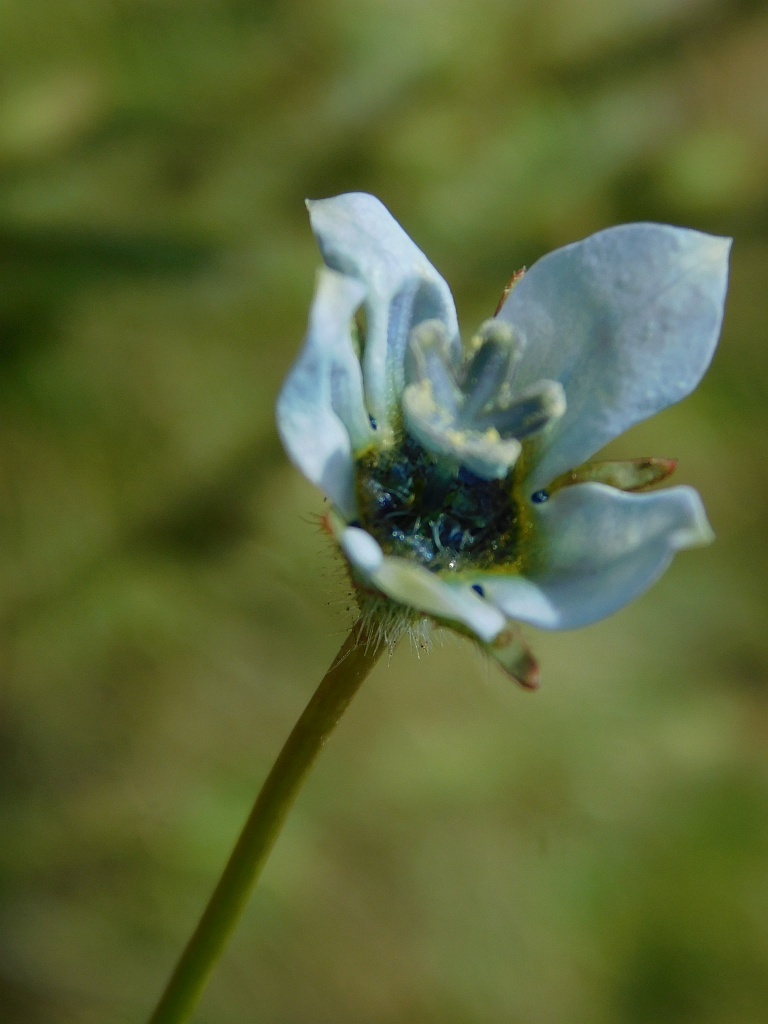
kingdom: Plantae
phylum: Tracheophyta
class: Magnoliopsida
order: Asterales
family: Campanulaceae
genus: Wahlenbergia
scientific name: Wahlenbergia capensis
